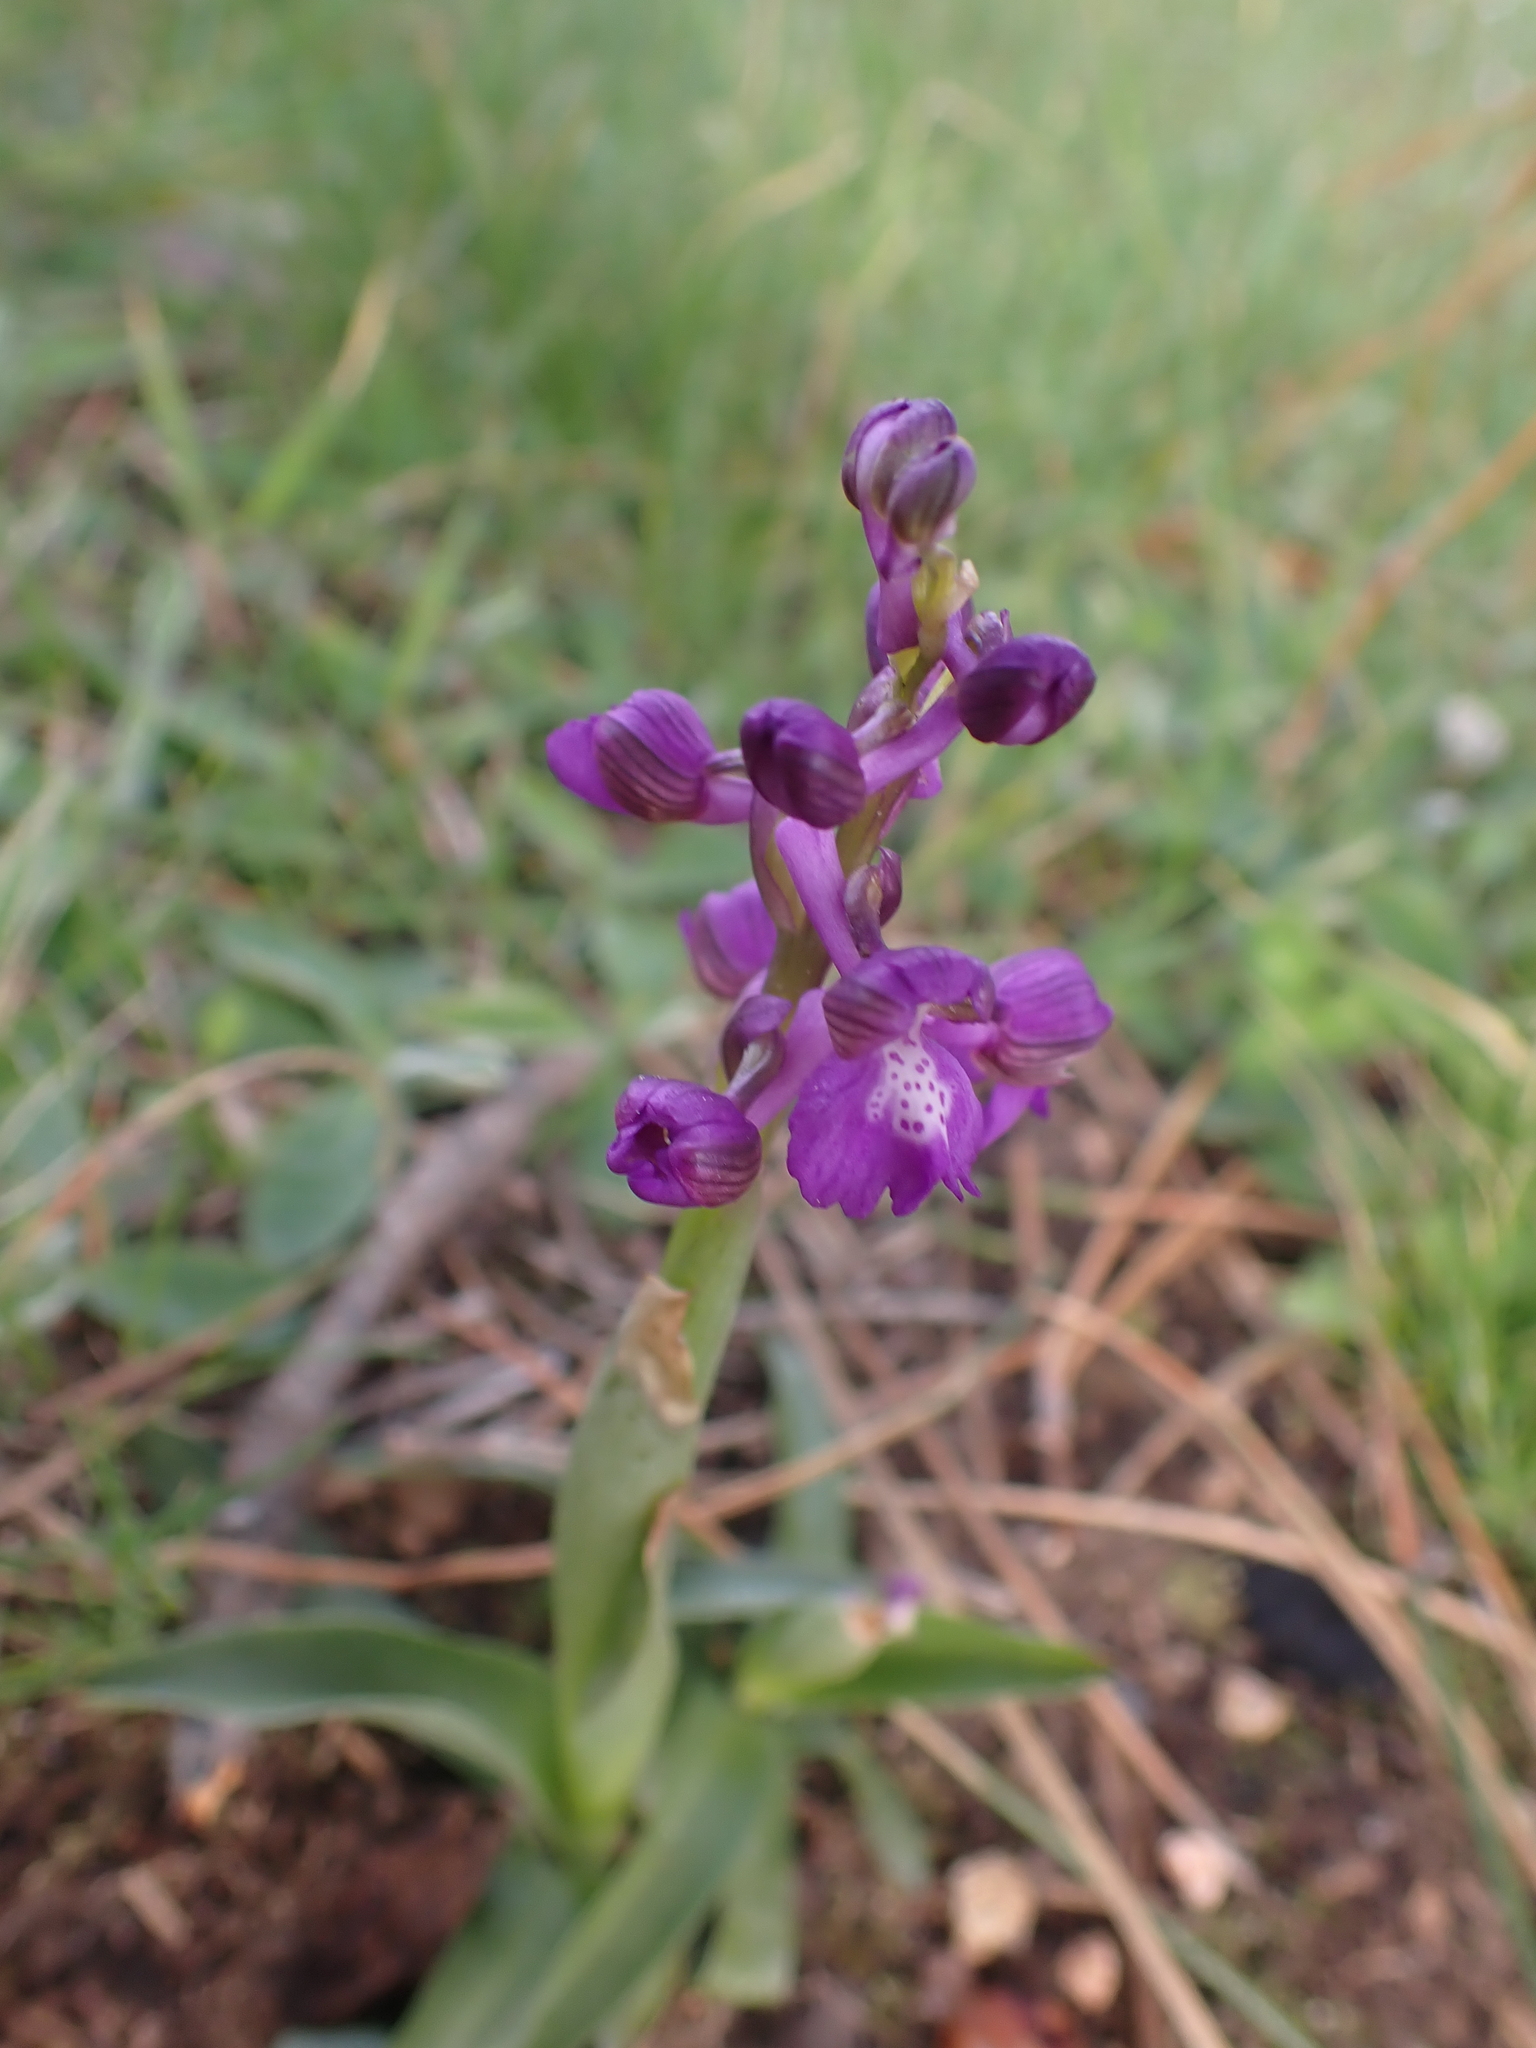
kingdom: Plantae
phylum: Tracheophyta
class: Liliopsida
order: Asparagales
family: Orchidaceae
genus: Anacamptis
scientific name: Anacamptis morio
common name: Green-winged orchid
